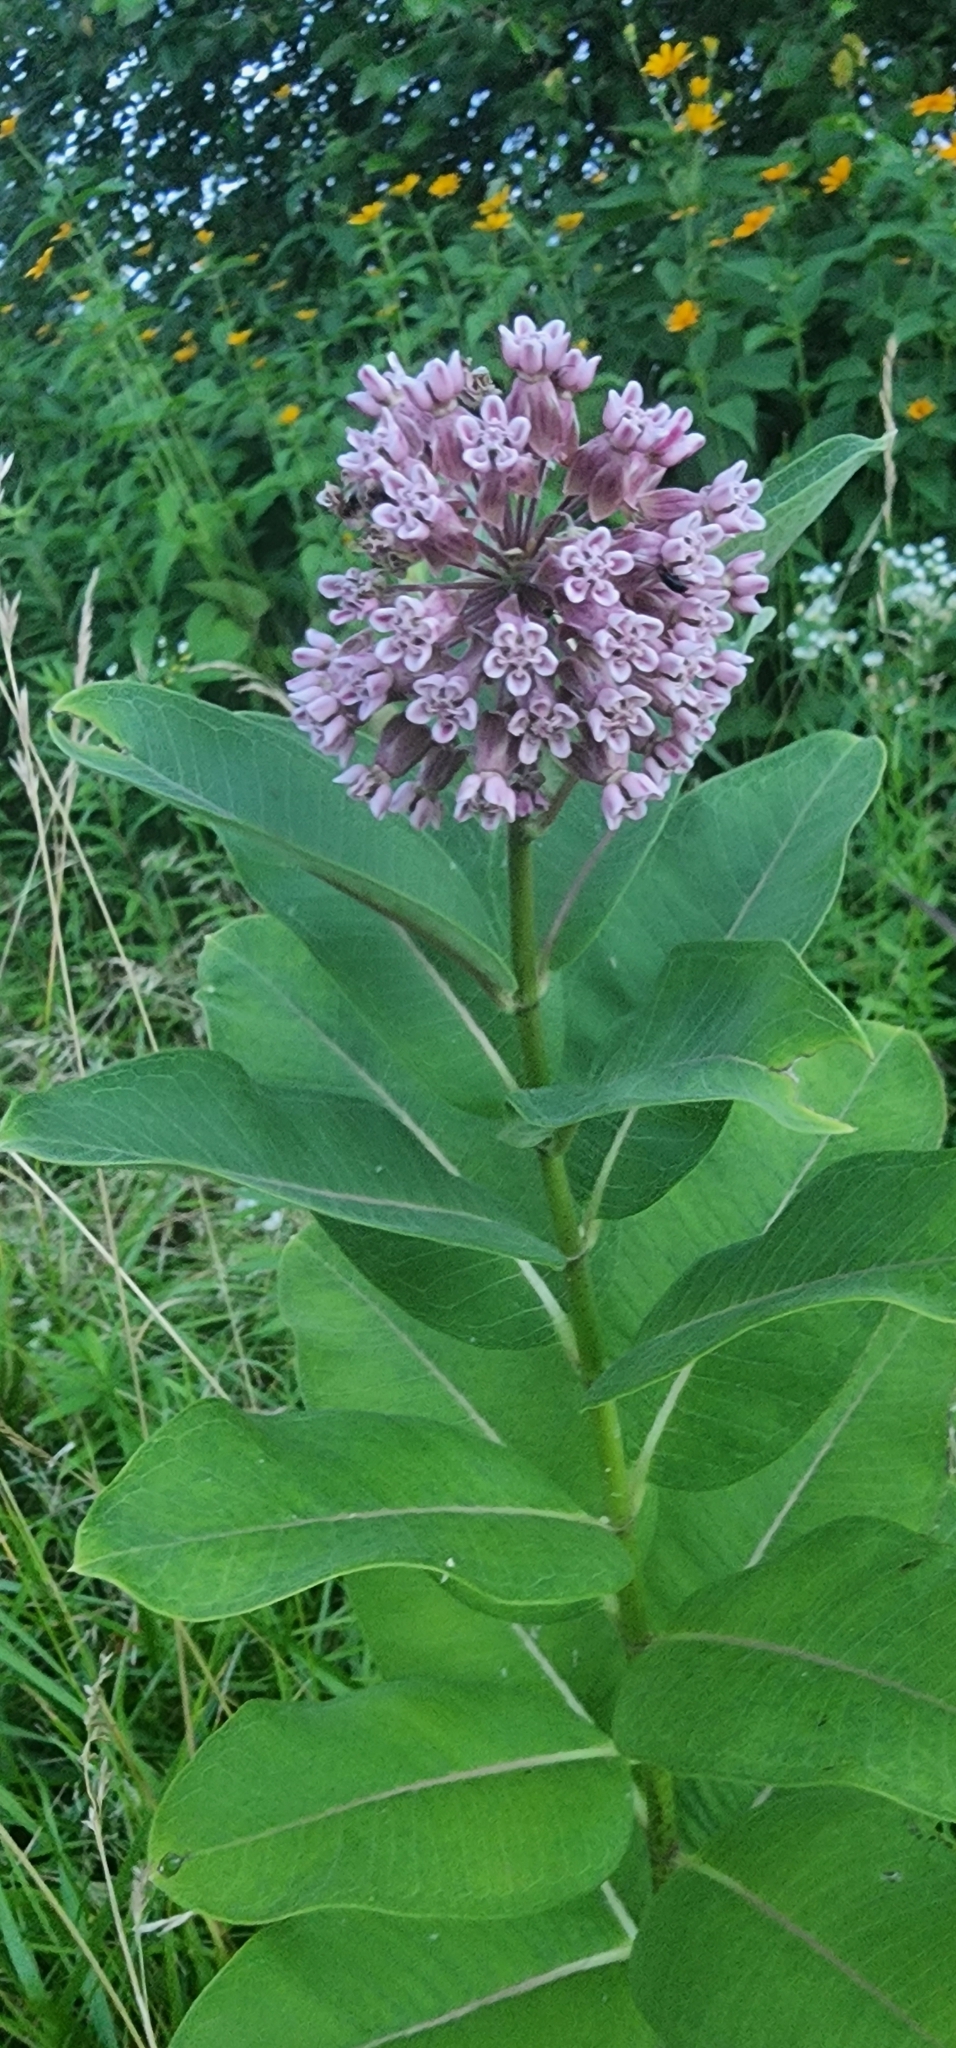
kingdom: Plantae
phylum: Tracheophyta
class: Magnoliopsida
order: Gentianales
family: Apocynaceae
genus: Asclepias
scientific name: Asclepias syriaca
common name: Common milkweed
